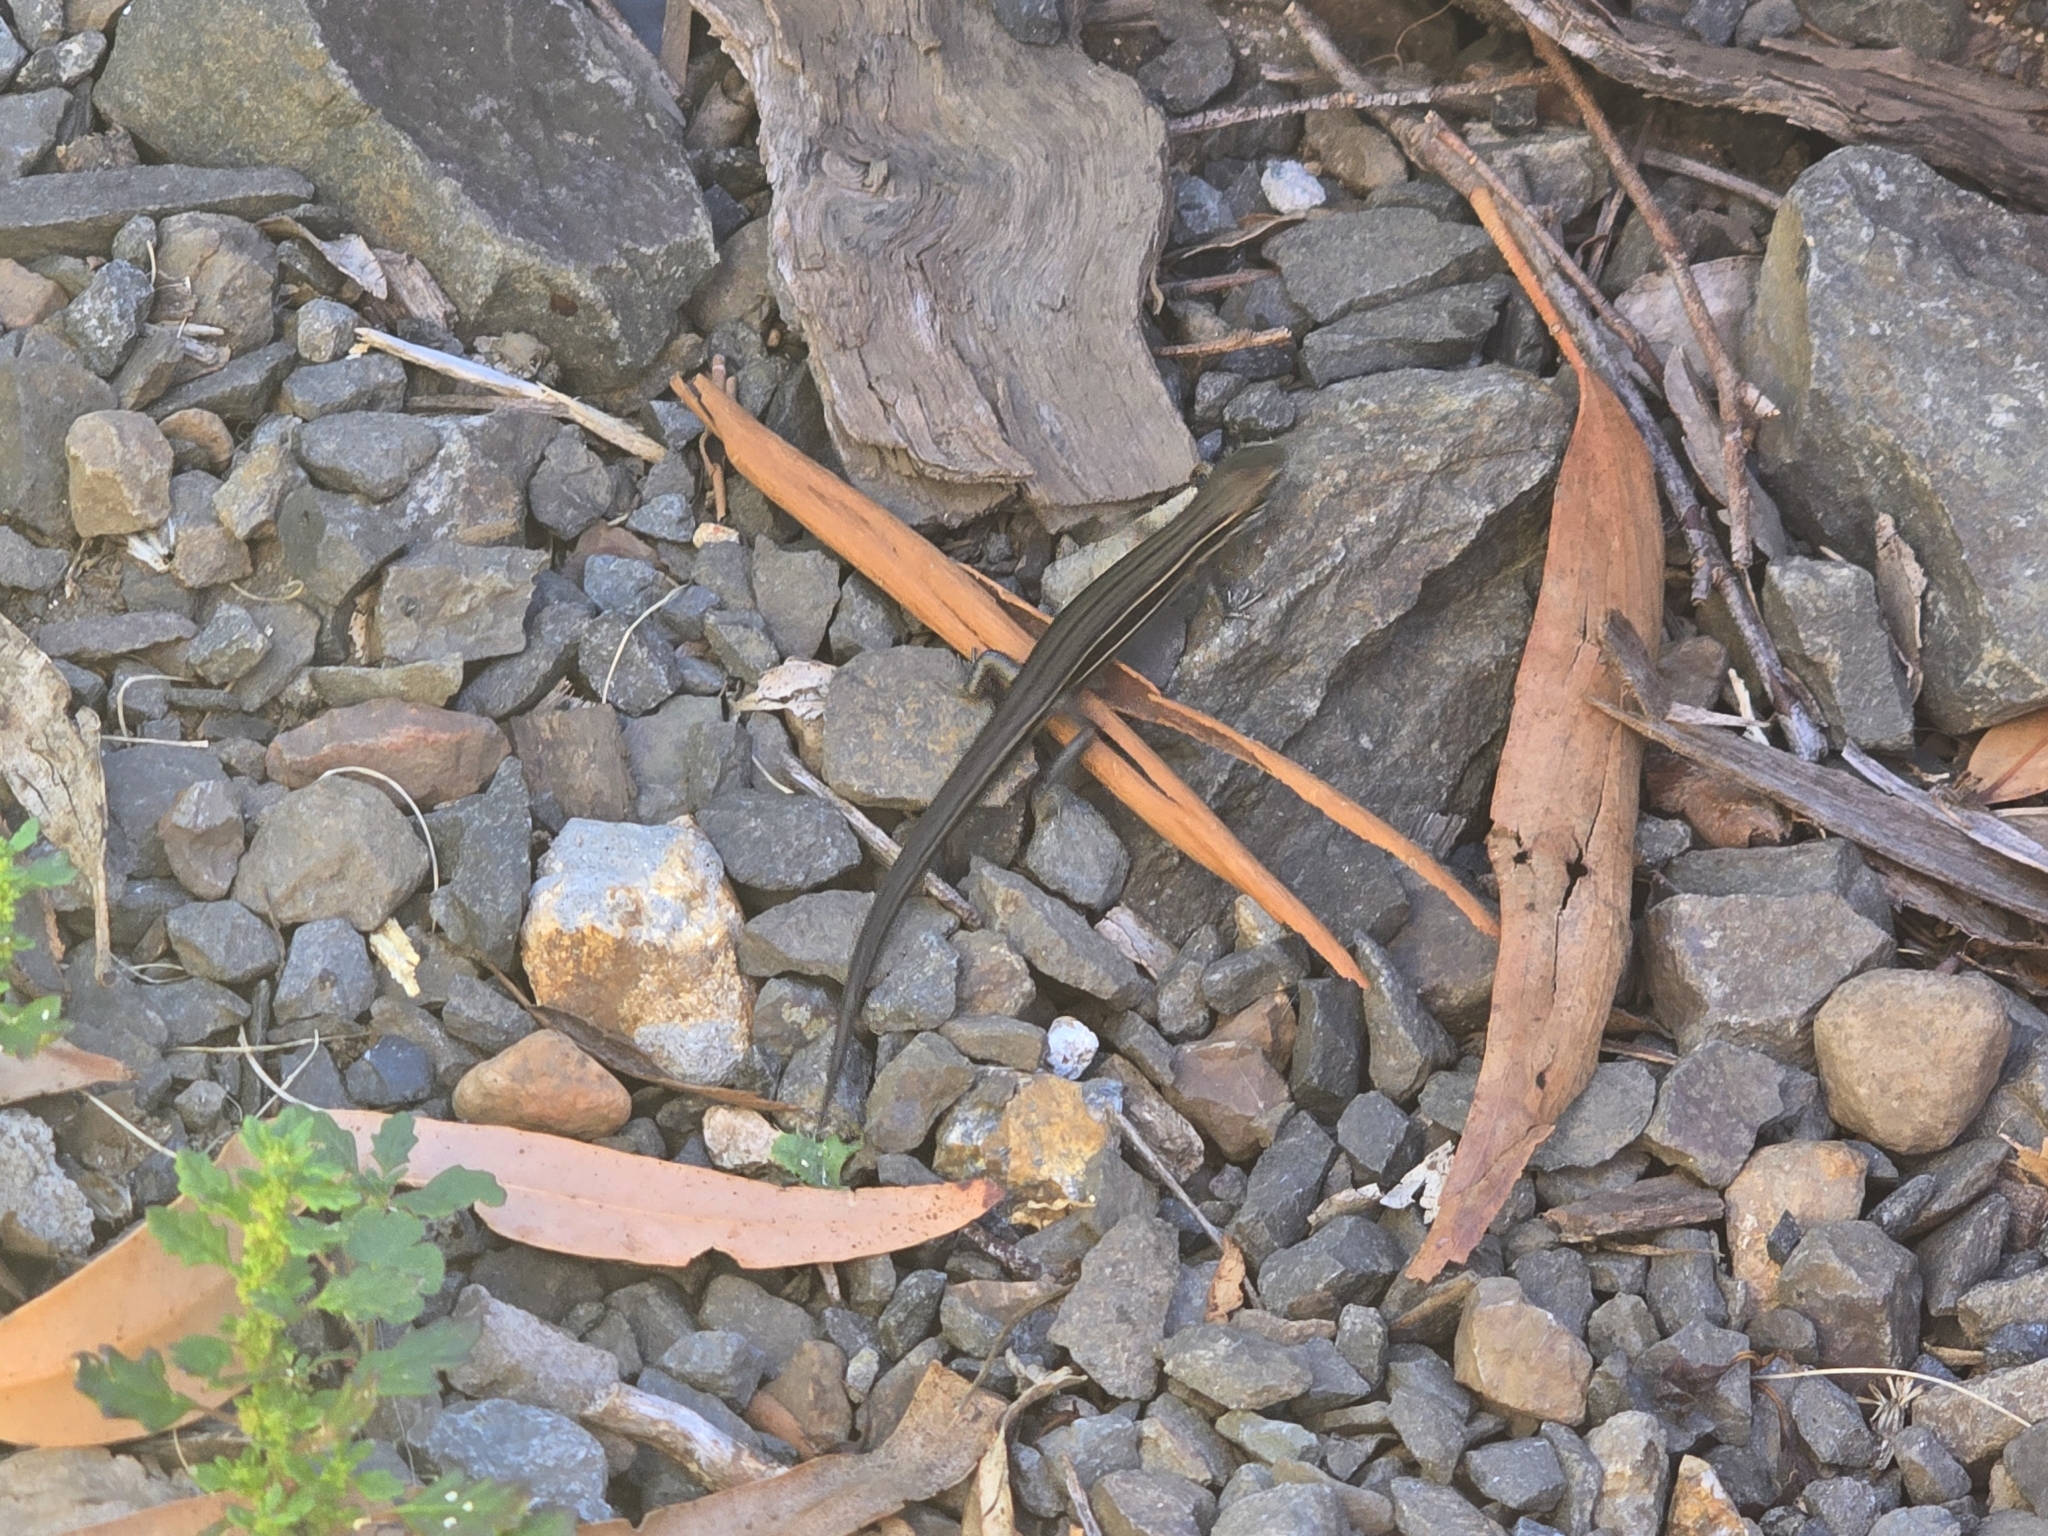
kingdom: Animalia
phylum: Chordata
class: Squamata
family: Scincidae
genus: Pseudemoia
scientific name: Pseudemoia pagenstecheri
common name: Southern grass tussock skink
